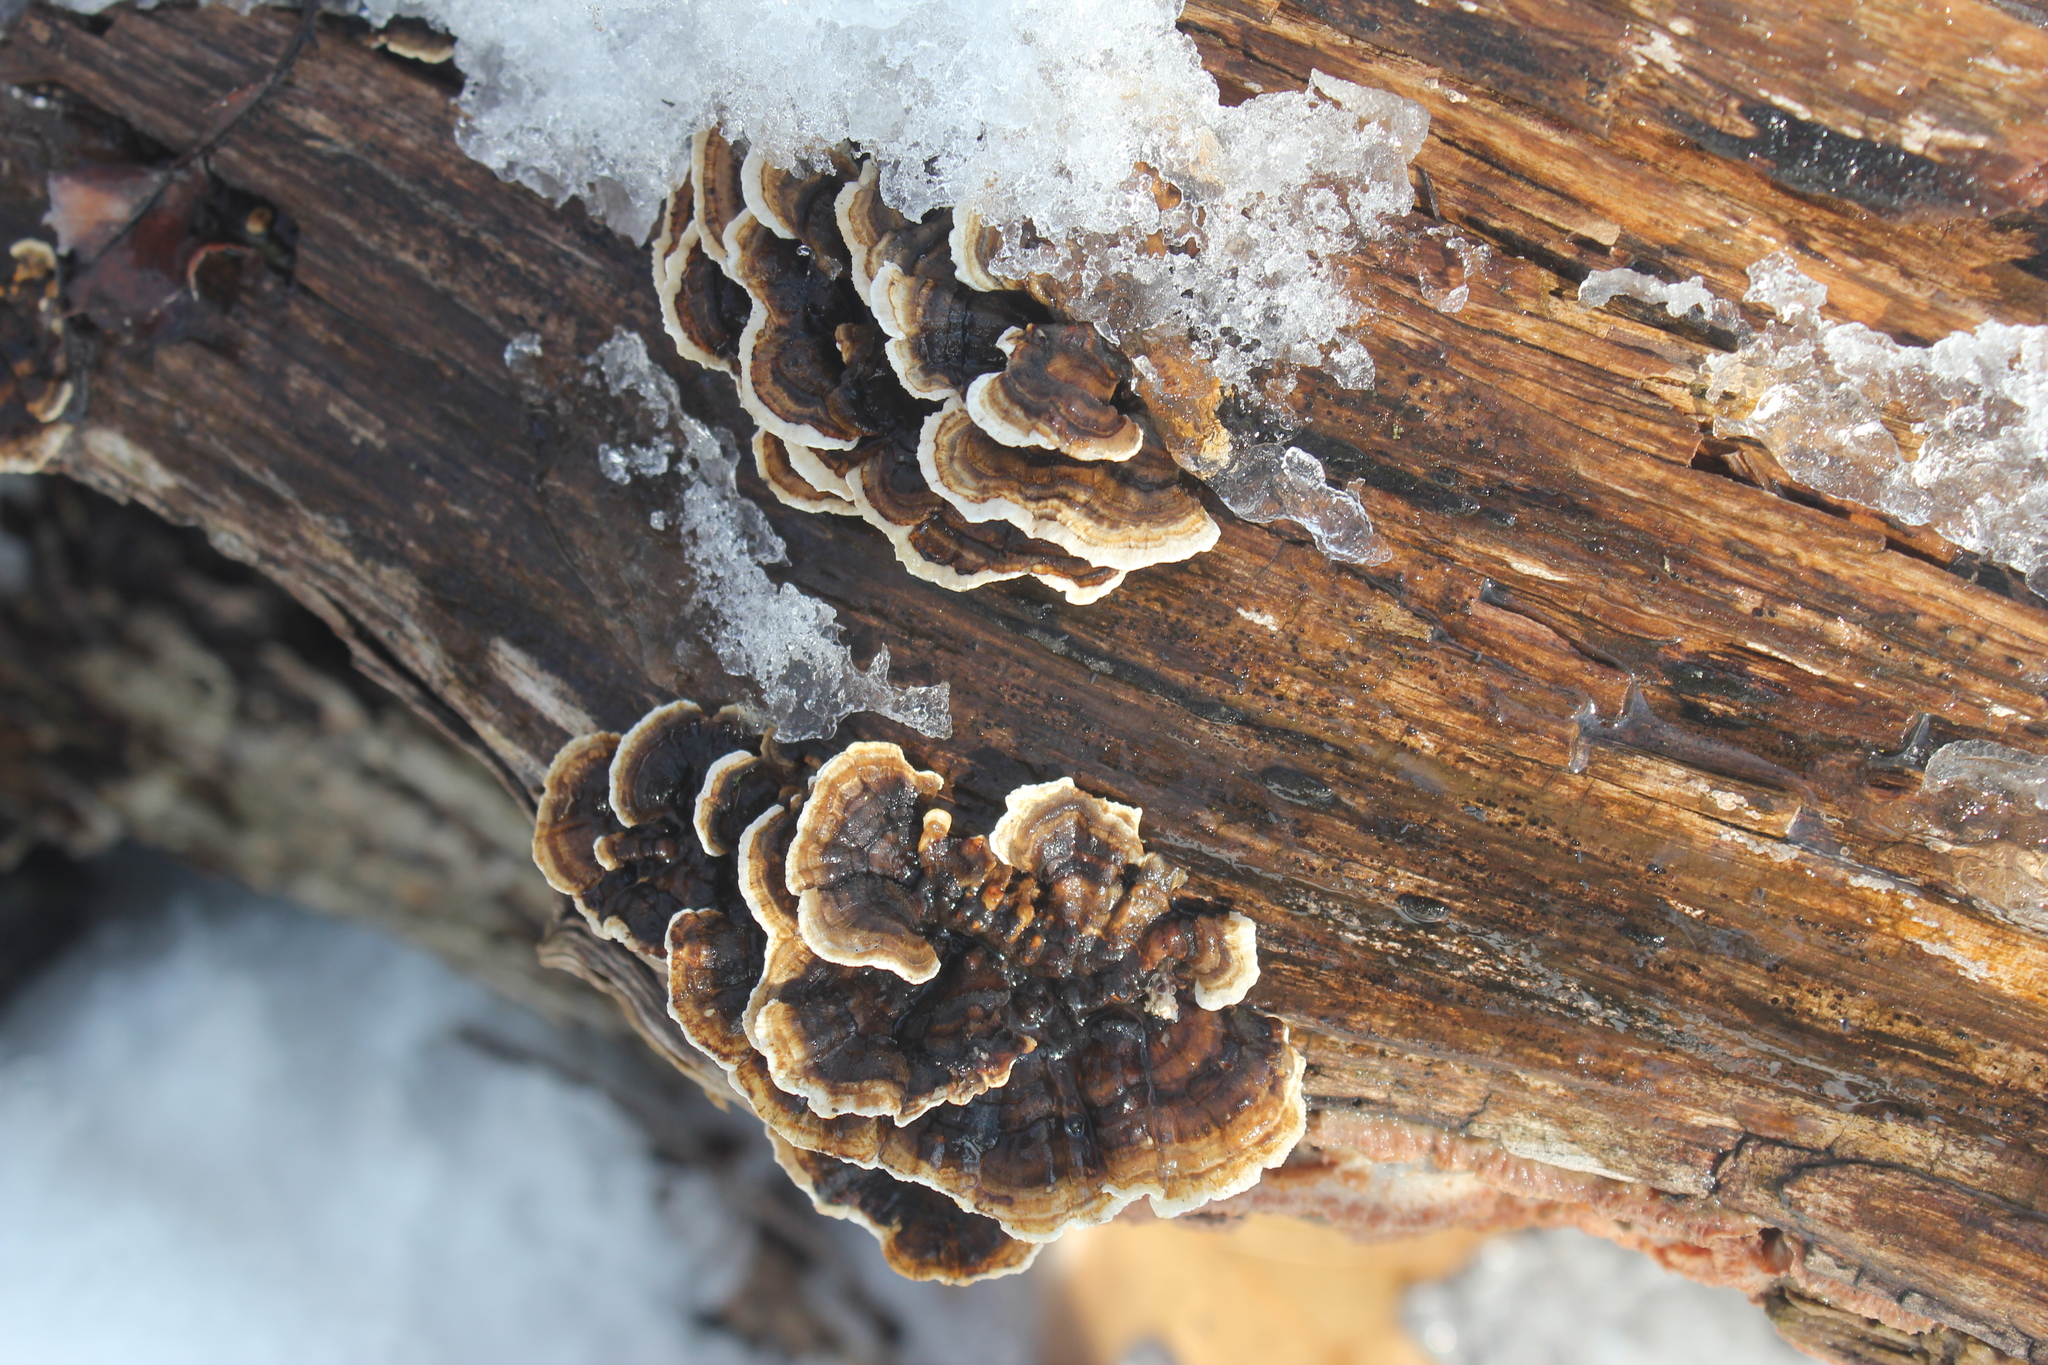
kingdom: Fungi
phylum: Basidiomycota
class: Agaricomycetes
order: Polyporales
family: Polyporaceae
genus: Trametes
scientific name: Trametes versicolor
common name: Turkeytail
